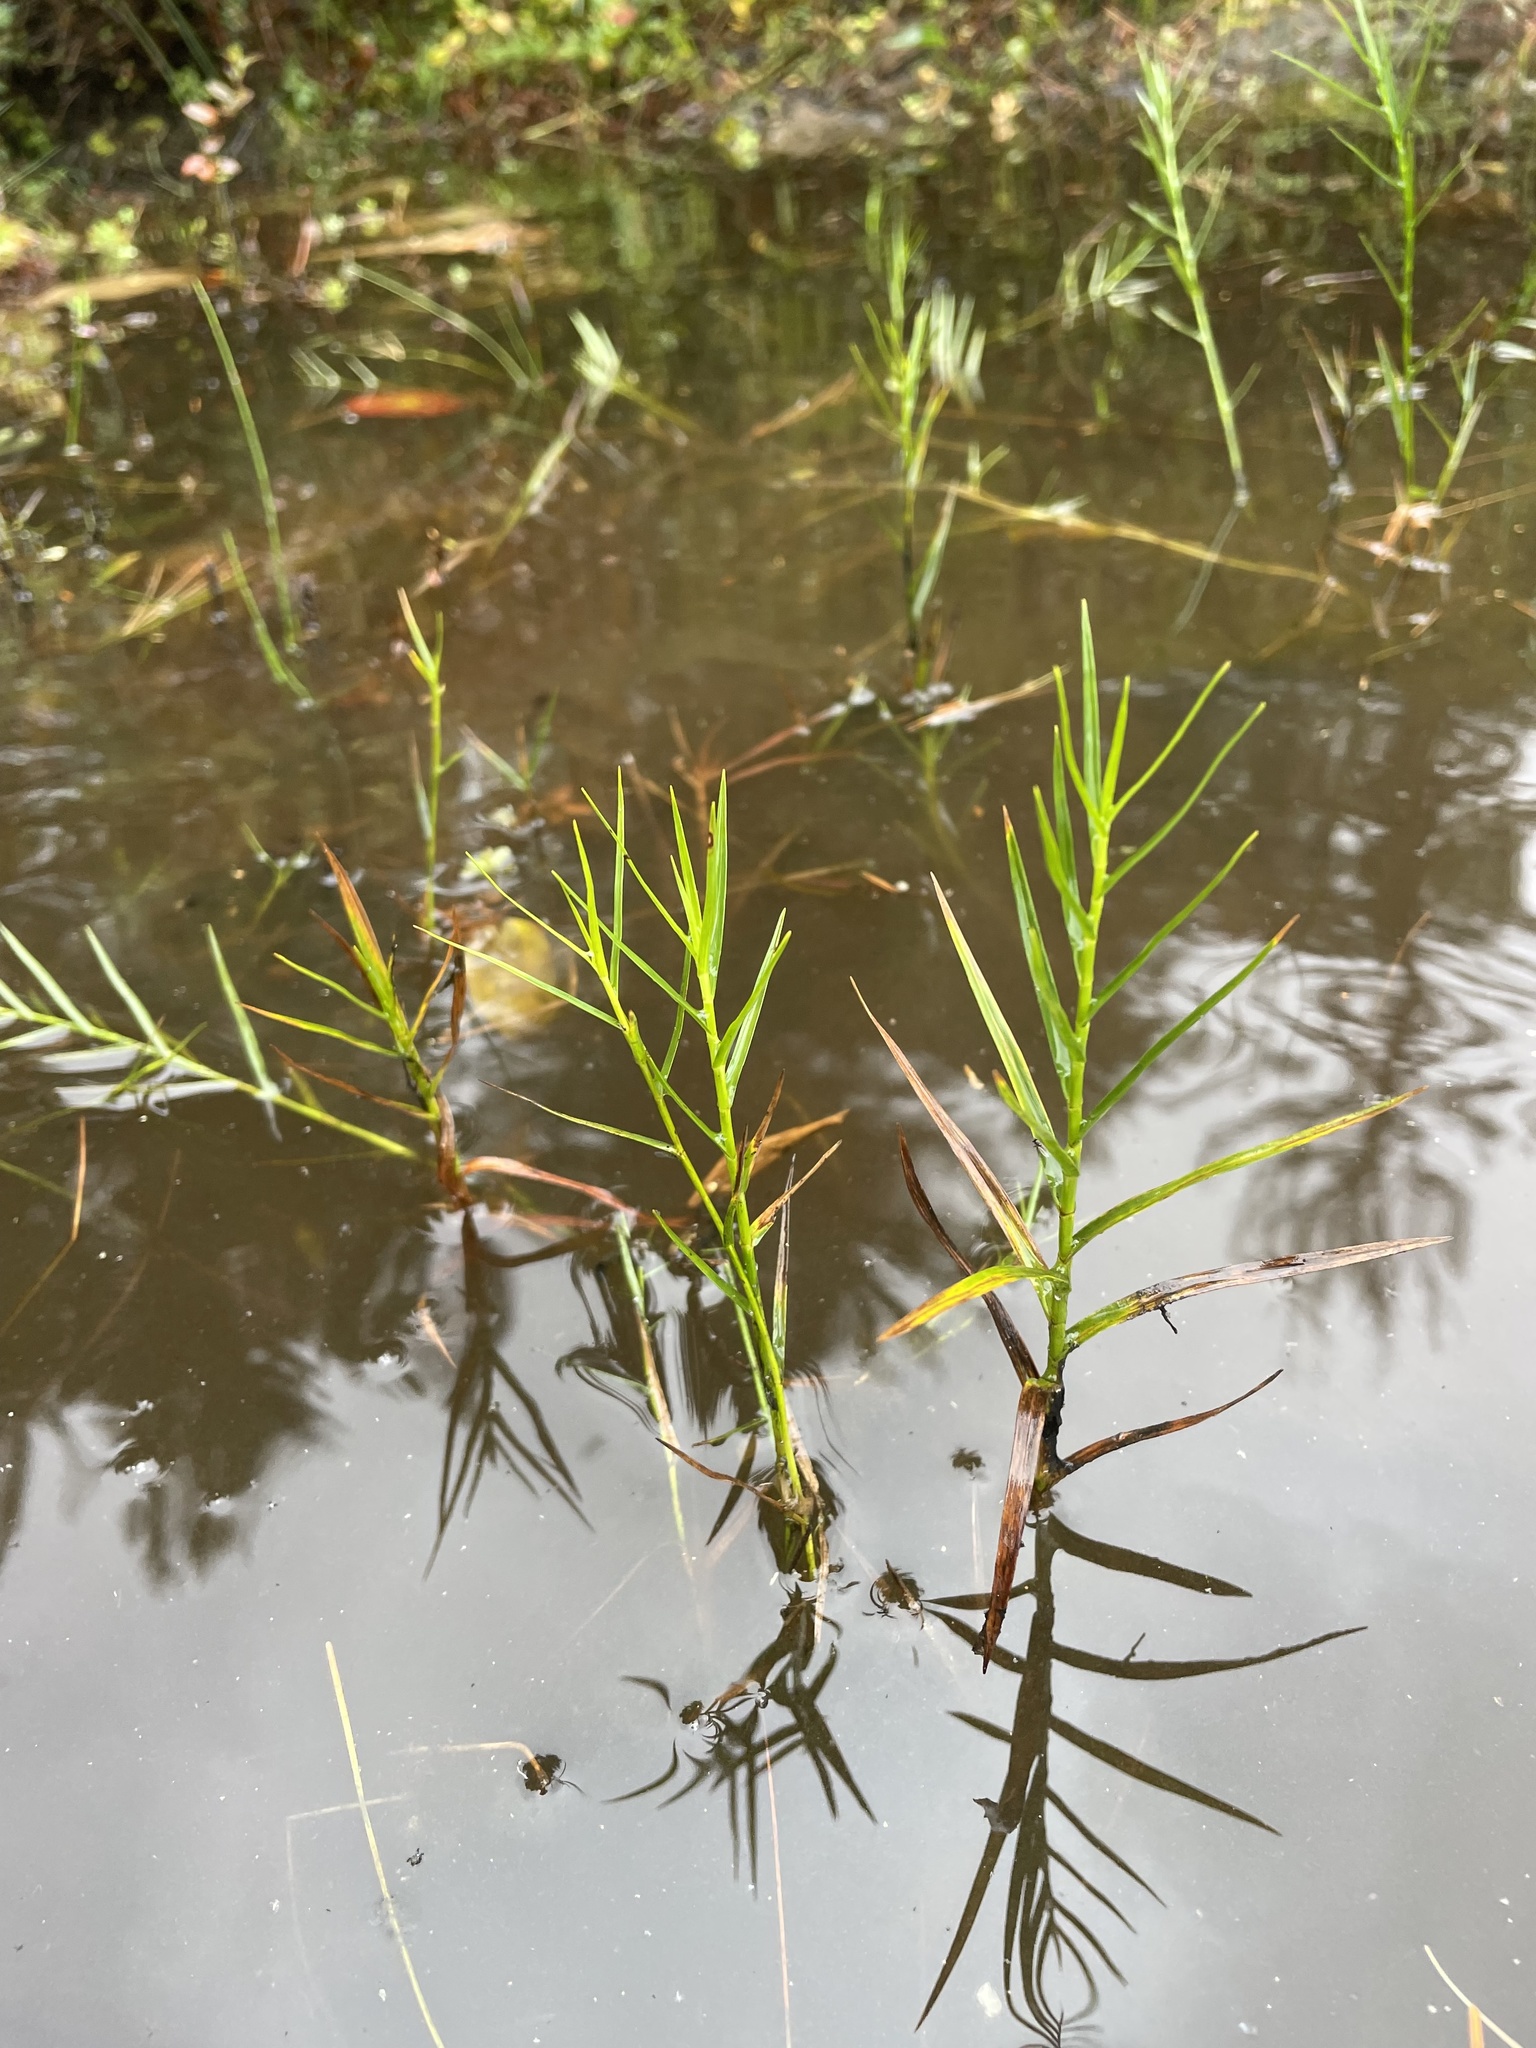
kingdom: Plantae
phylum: Tracheophyta
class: Liliopsida
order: Poales
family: Cyperaceae
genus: Dulichium
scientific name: Dulichium arundinaceum
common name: Three-way sedge
